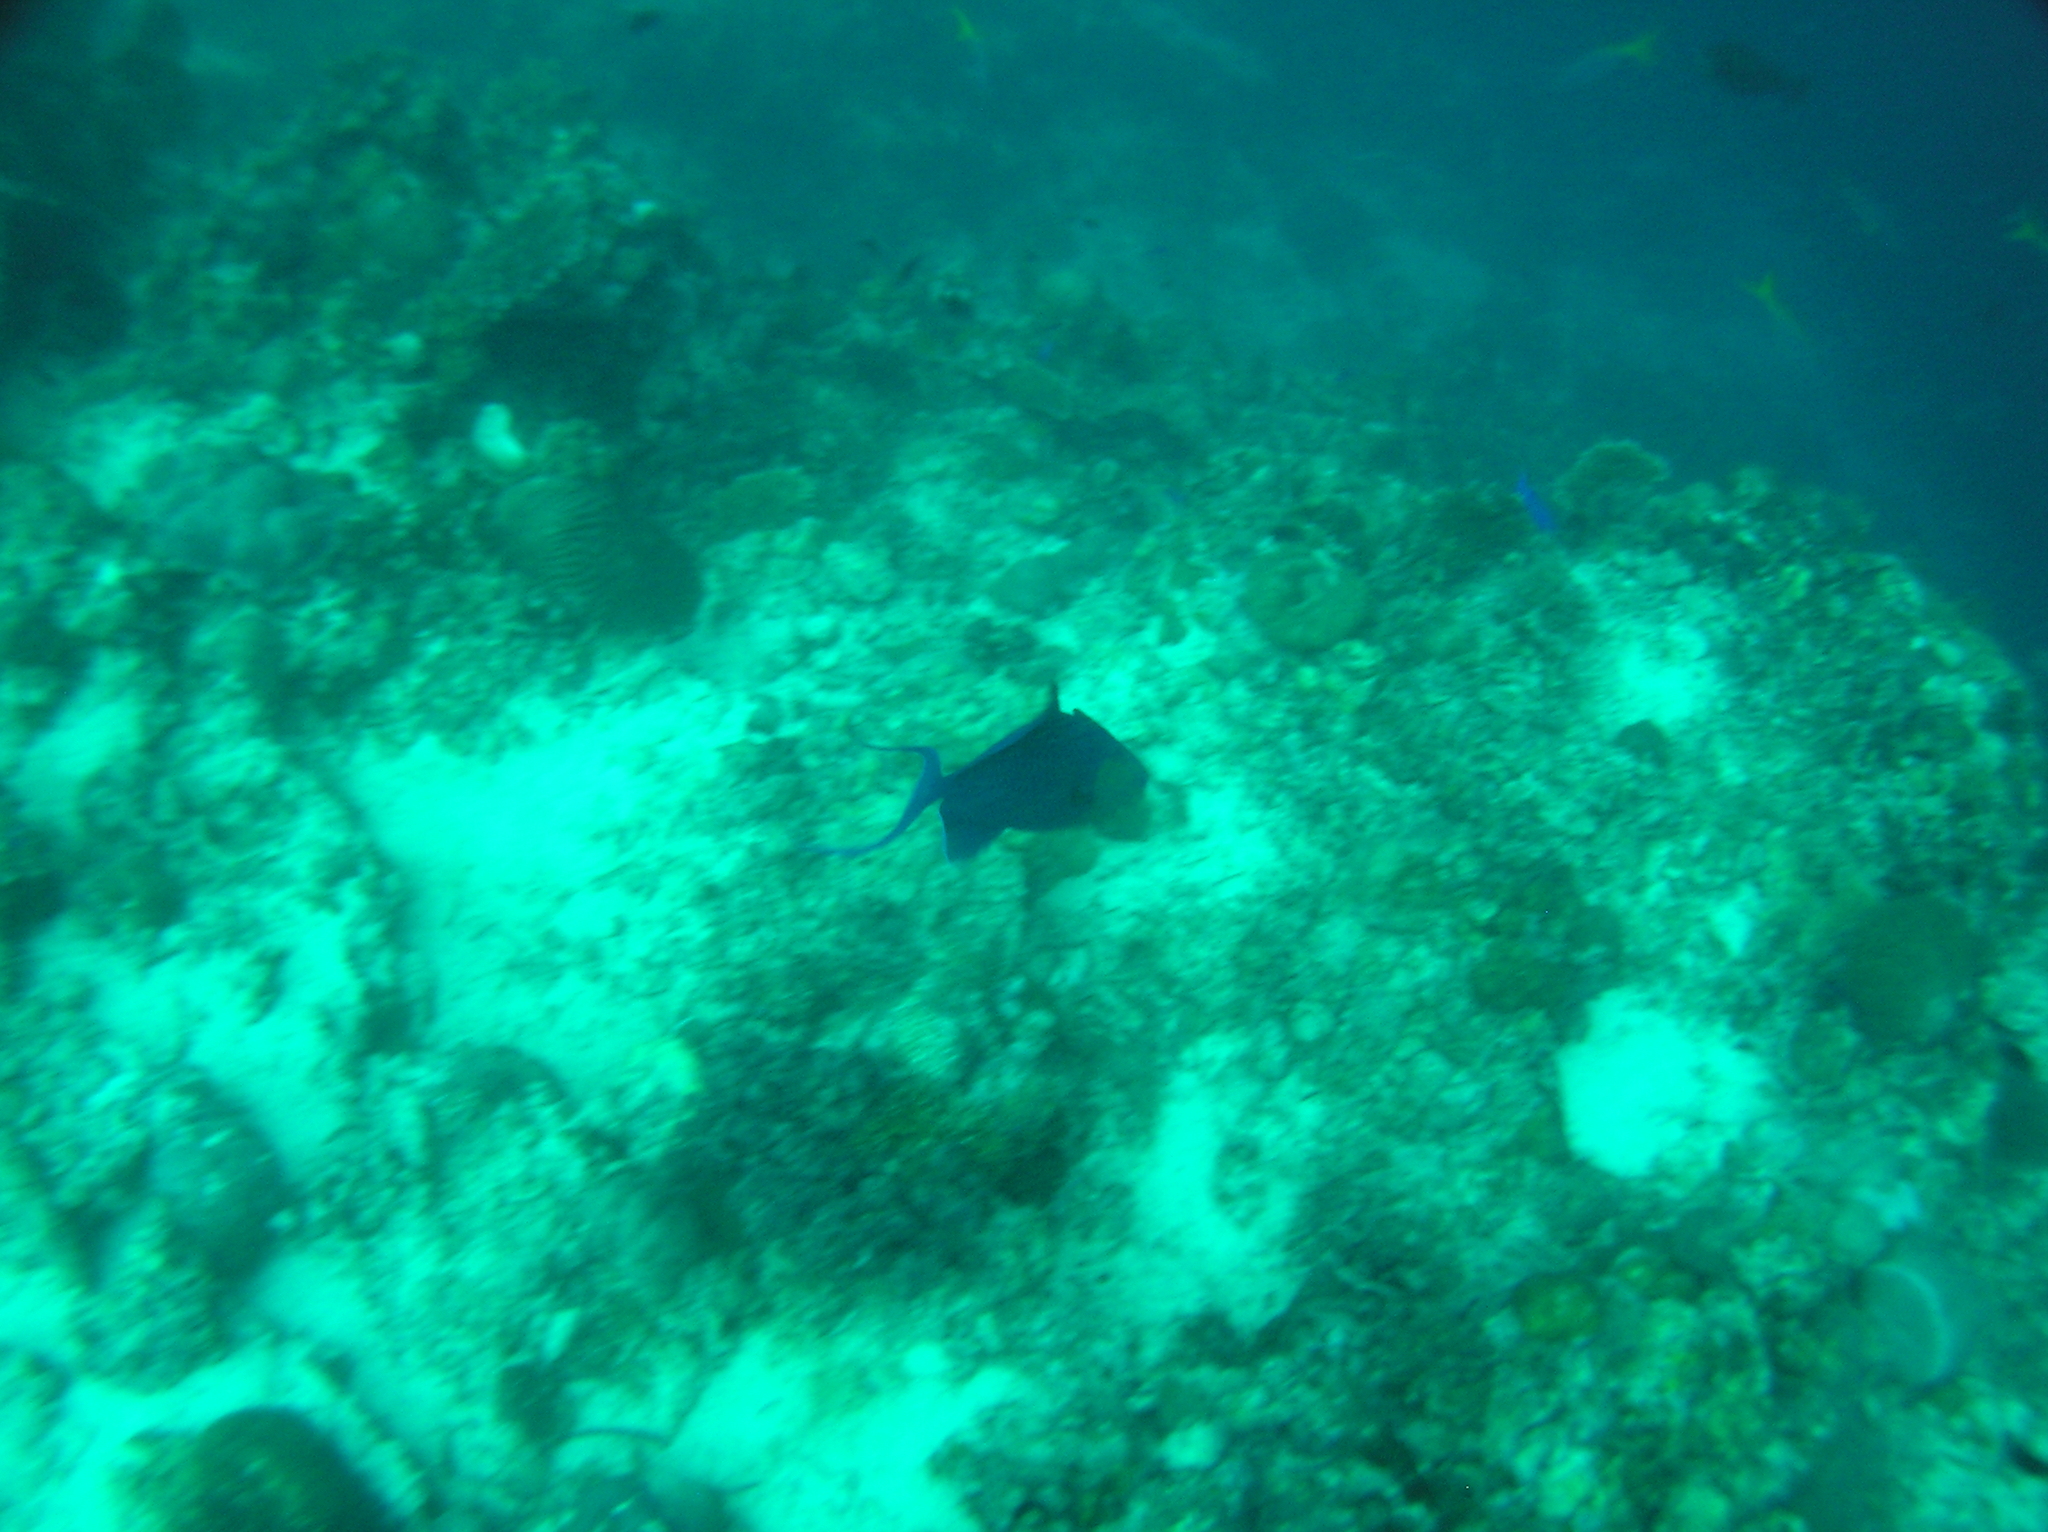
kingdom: Animalia
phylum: Chordata
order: Tetraodontiformes
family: Balistidae
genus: Odonus
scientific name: Odonus niger
